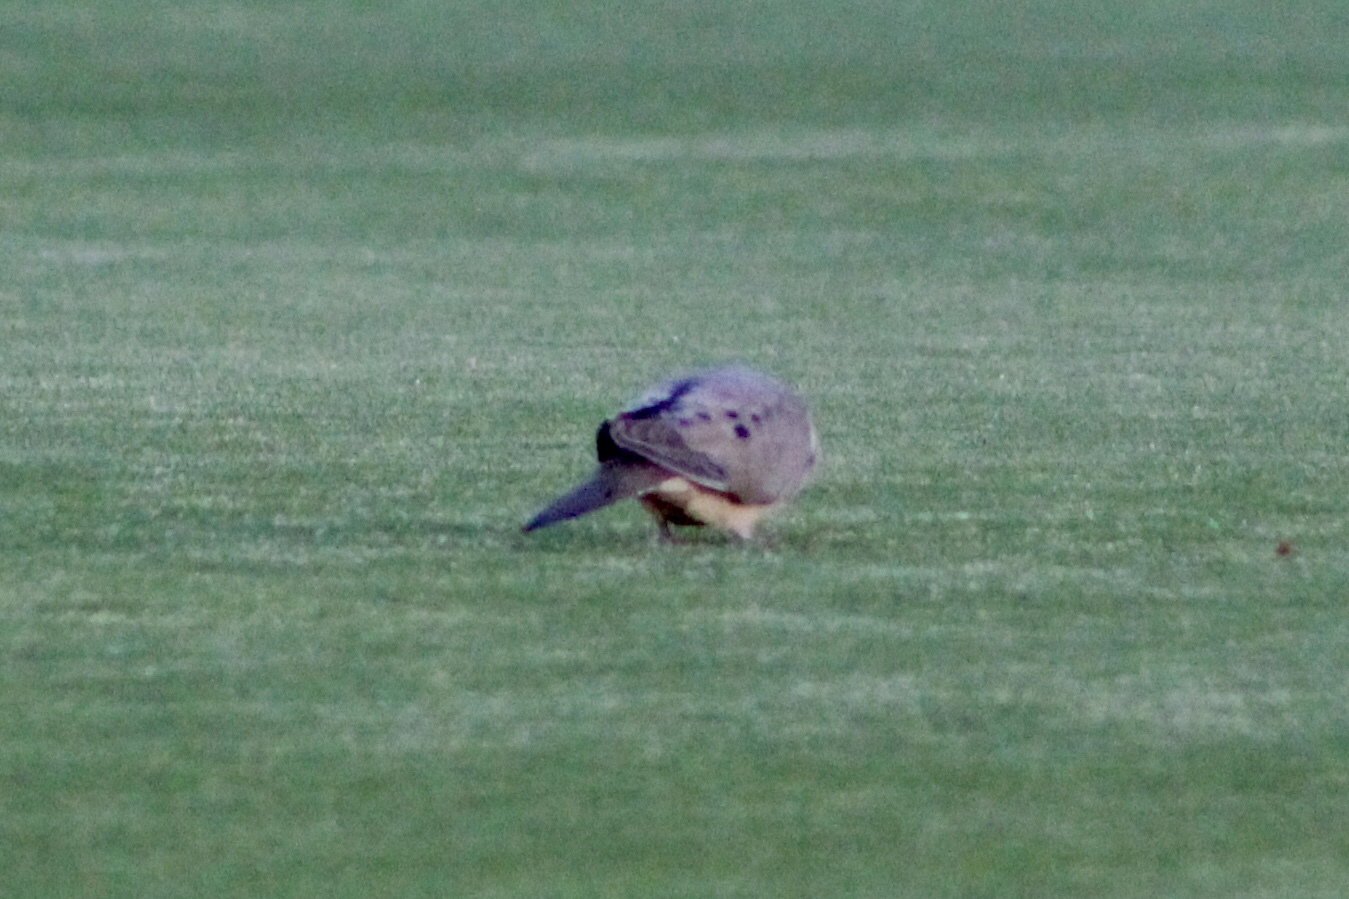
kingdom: Animalia
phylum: Chordata
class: Aves
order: Columbiformes
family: Columbidae
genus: Zenaida
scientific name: Zenaida macroura
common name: Mourning dove
